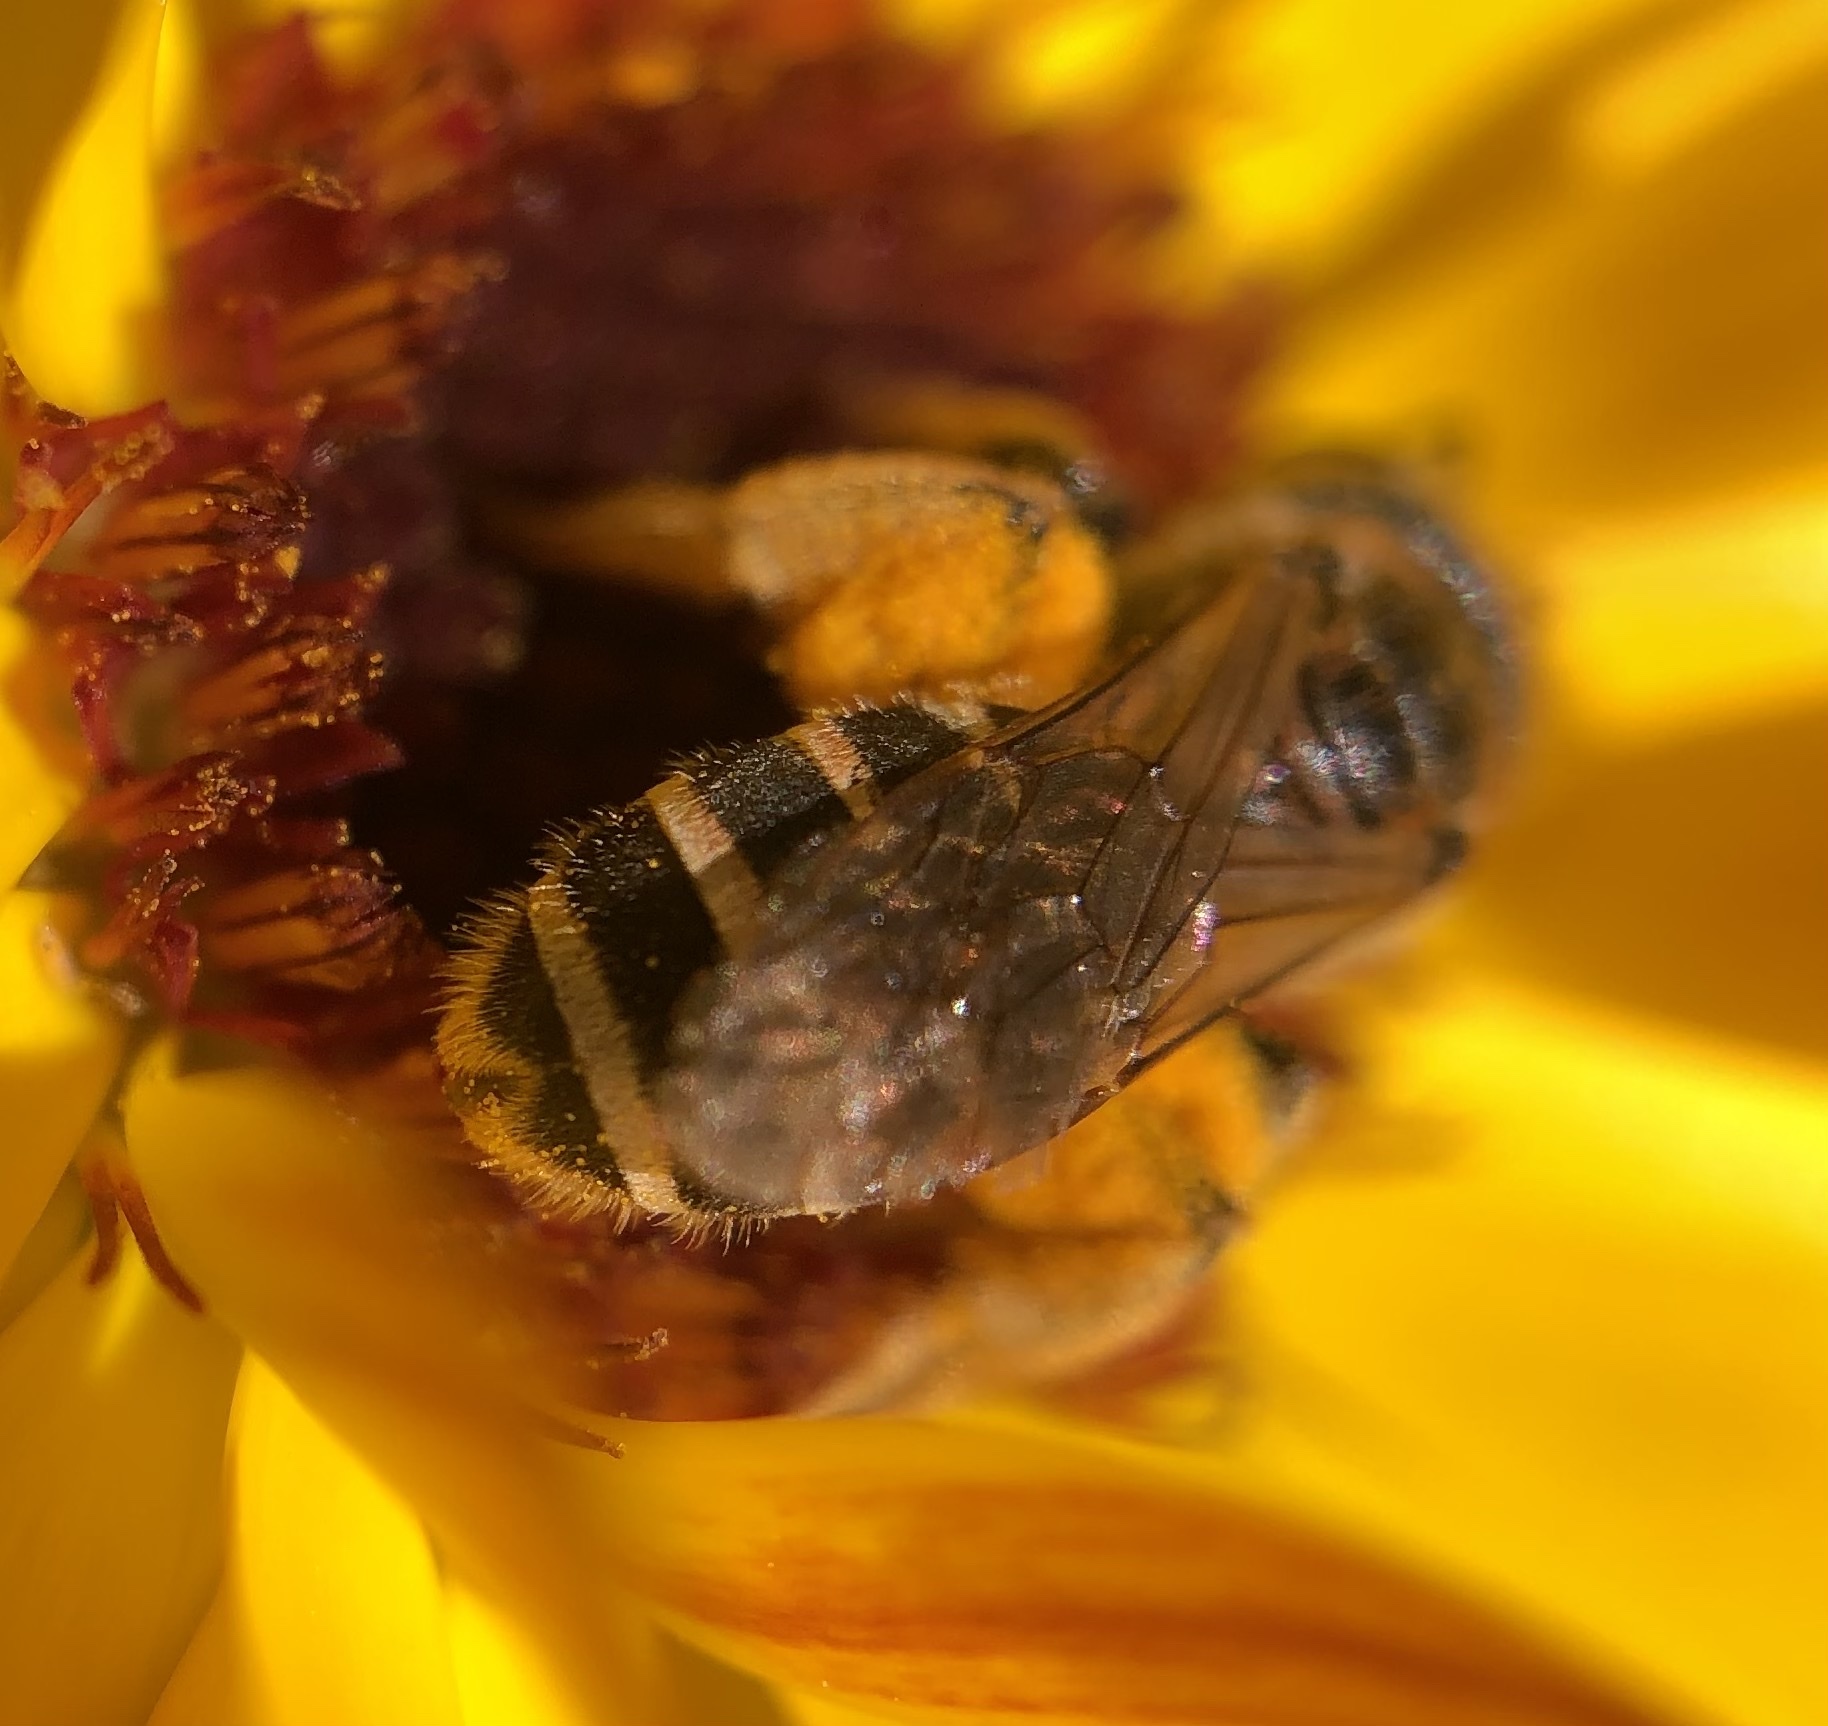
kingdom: Animalia
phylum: Arthropoda
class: Insecta
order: Hymenoptera
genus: Odontalictus
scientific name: Odontalictus
